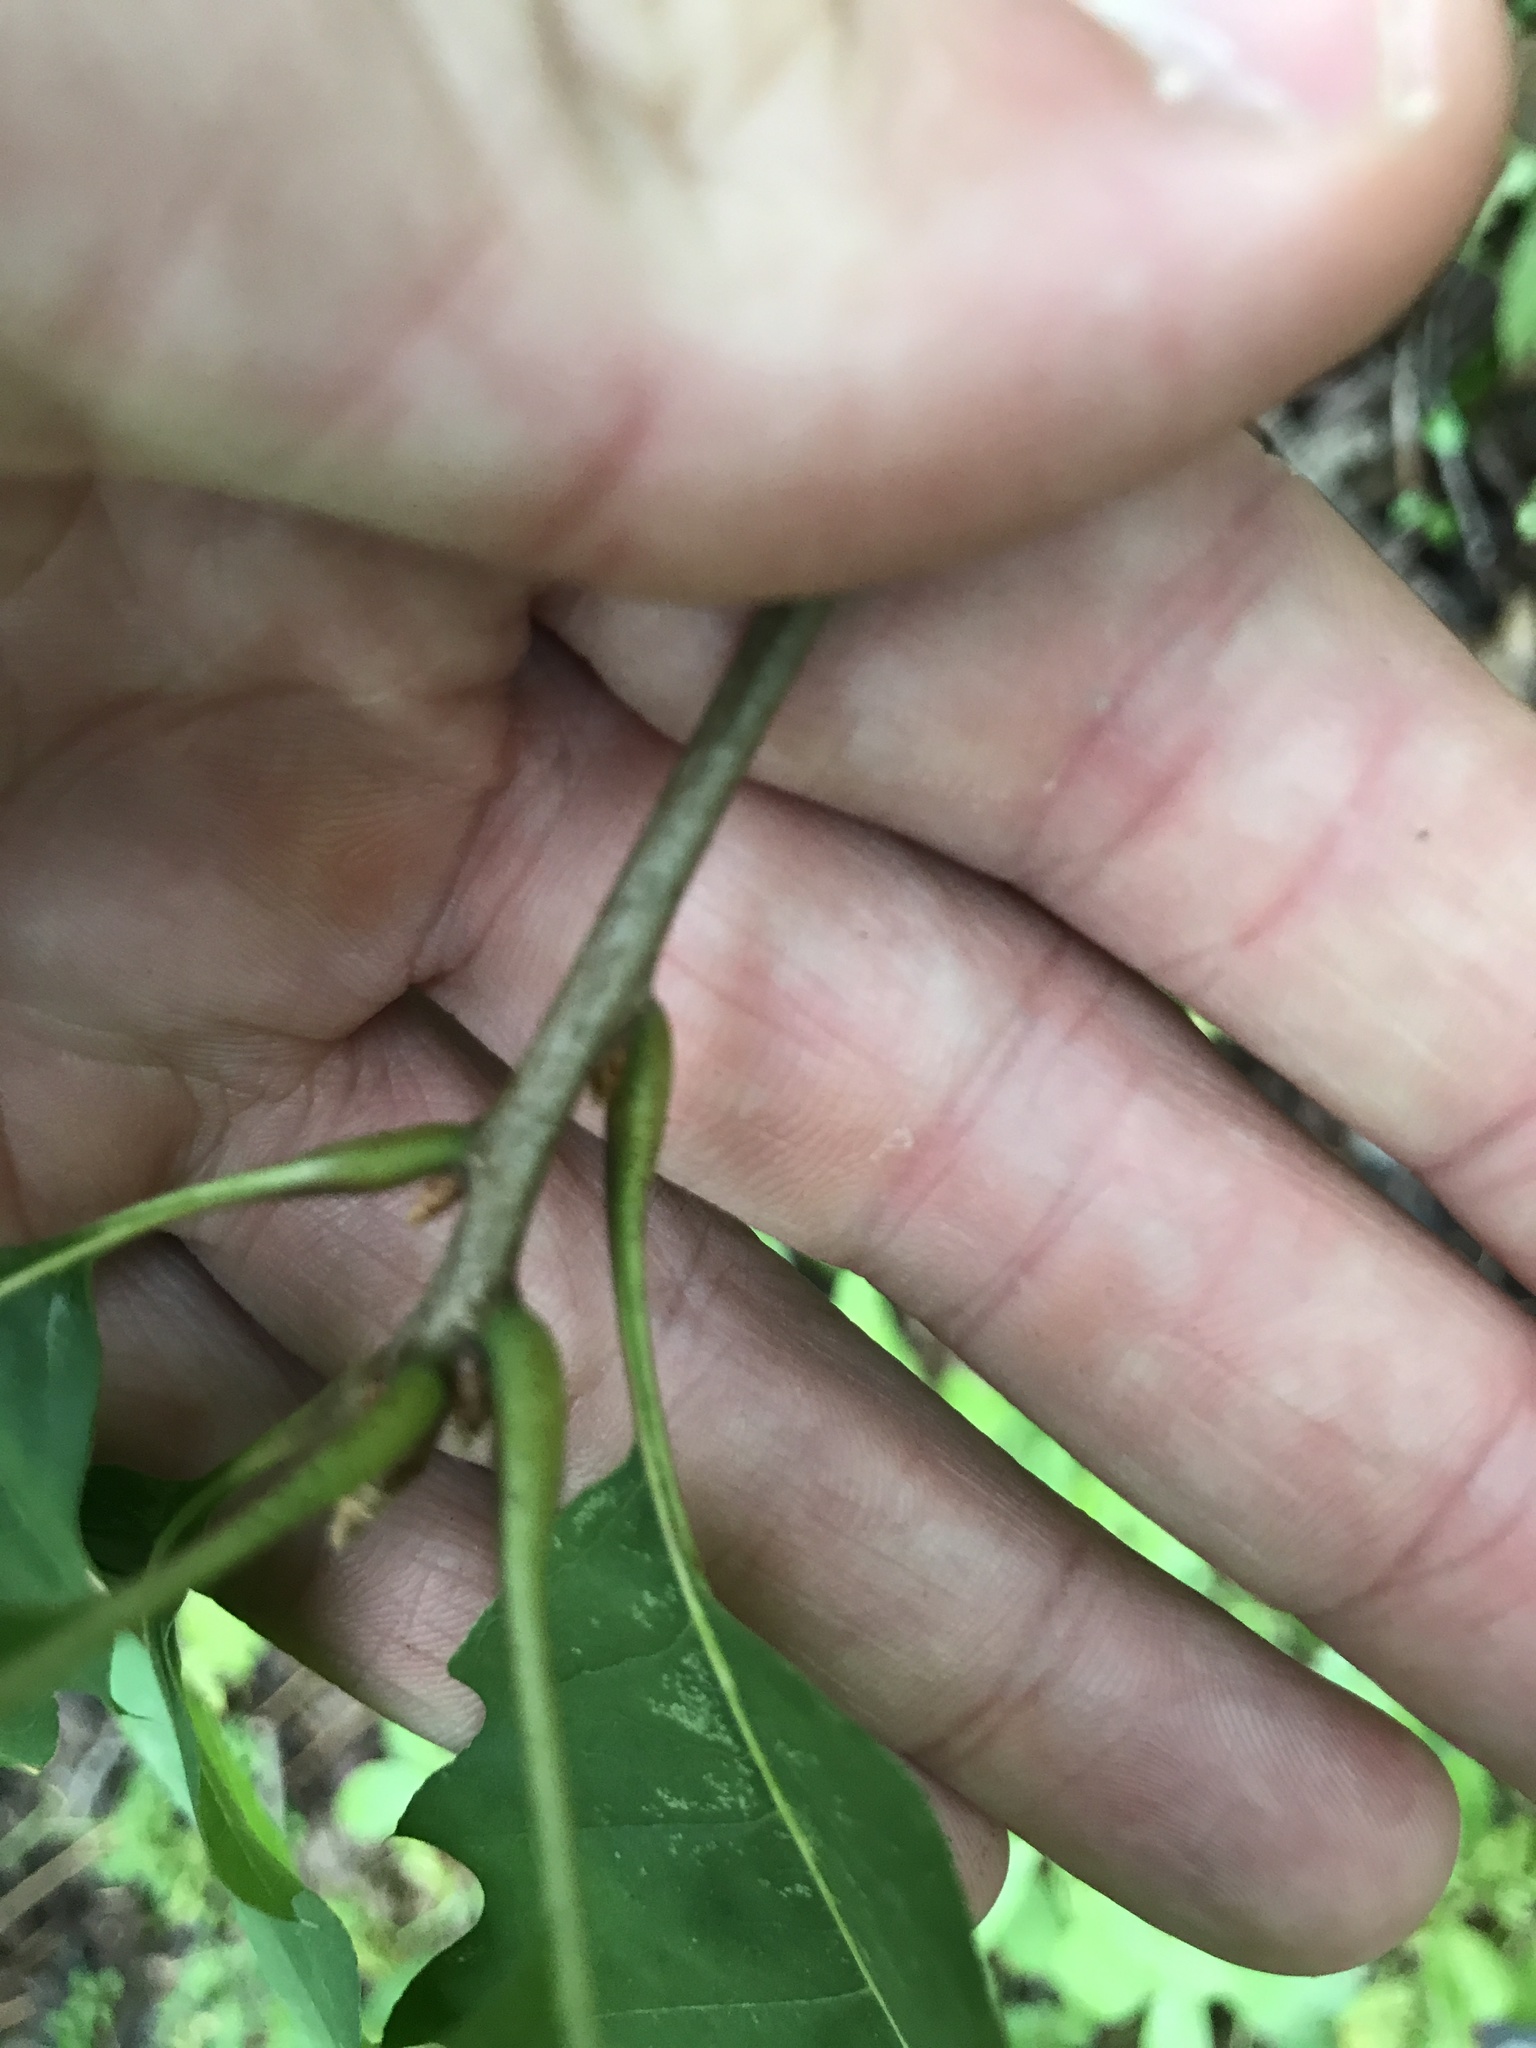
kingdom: Plantae
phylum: Tracheophyta
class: Magnoliopsida
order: Fagales
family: Fagaceae
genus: Quercus
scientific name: Quercus rubra
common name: Red oak
